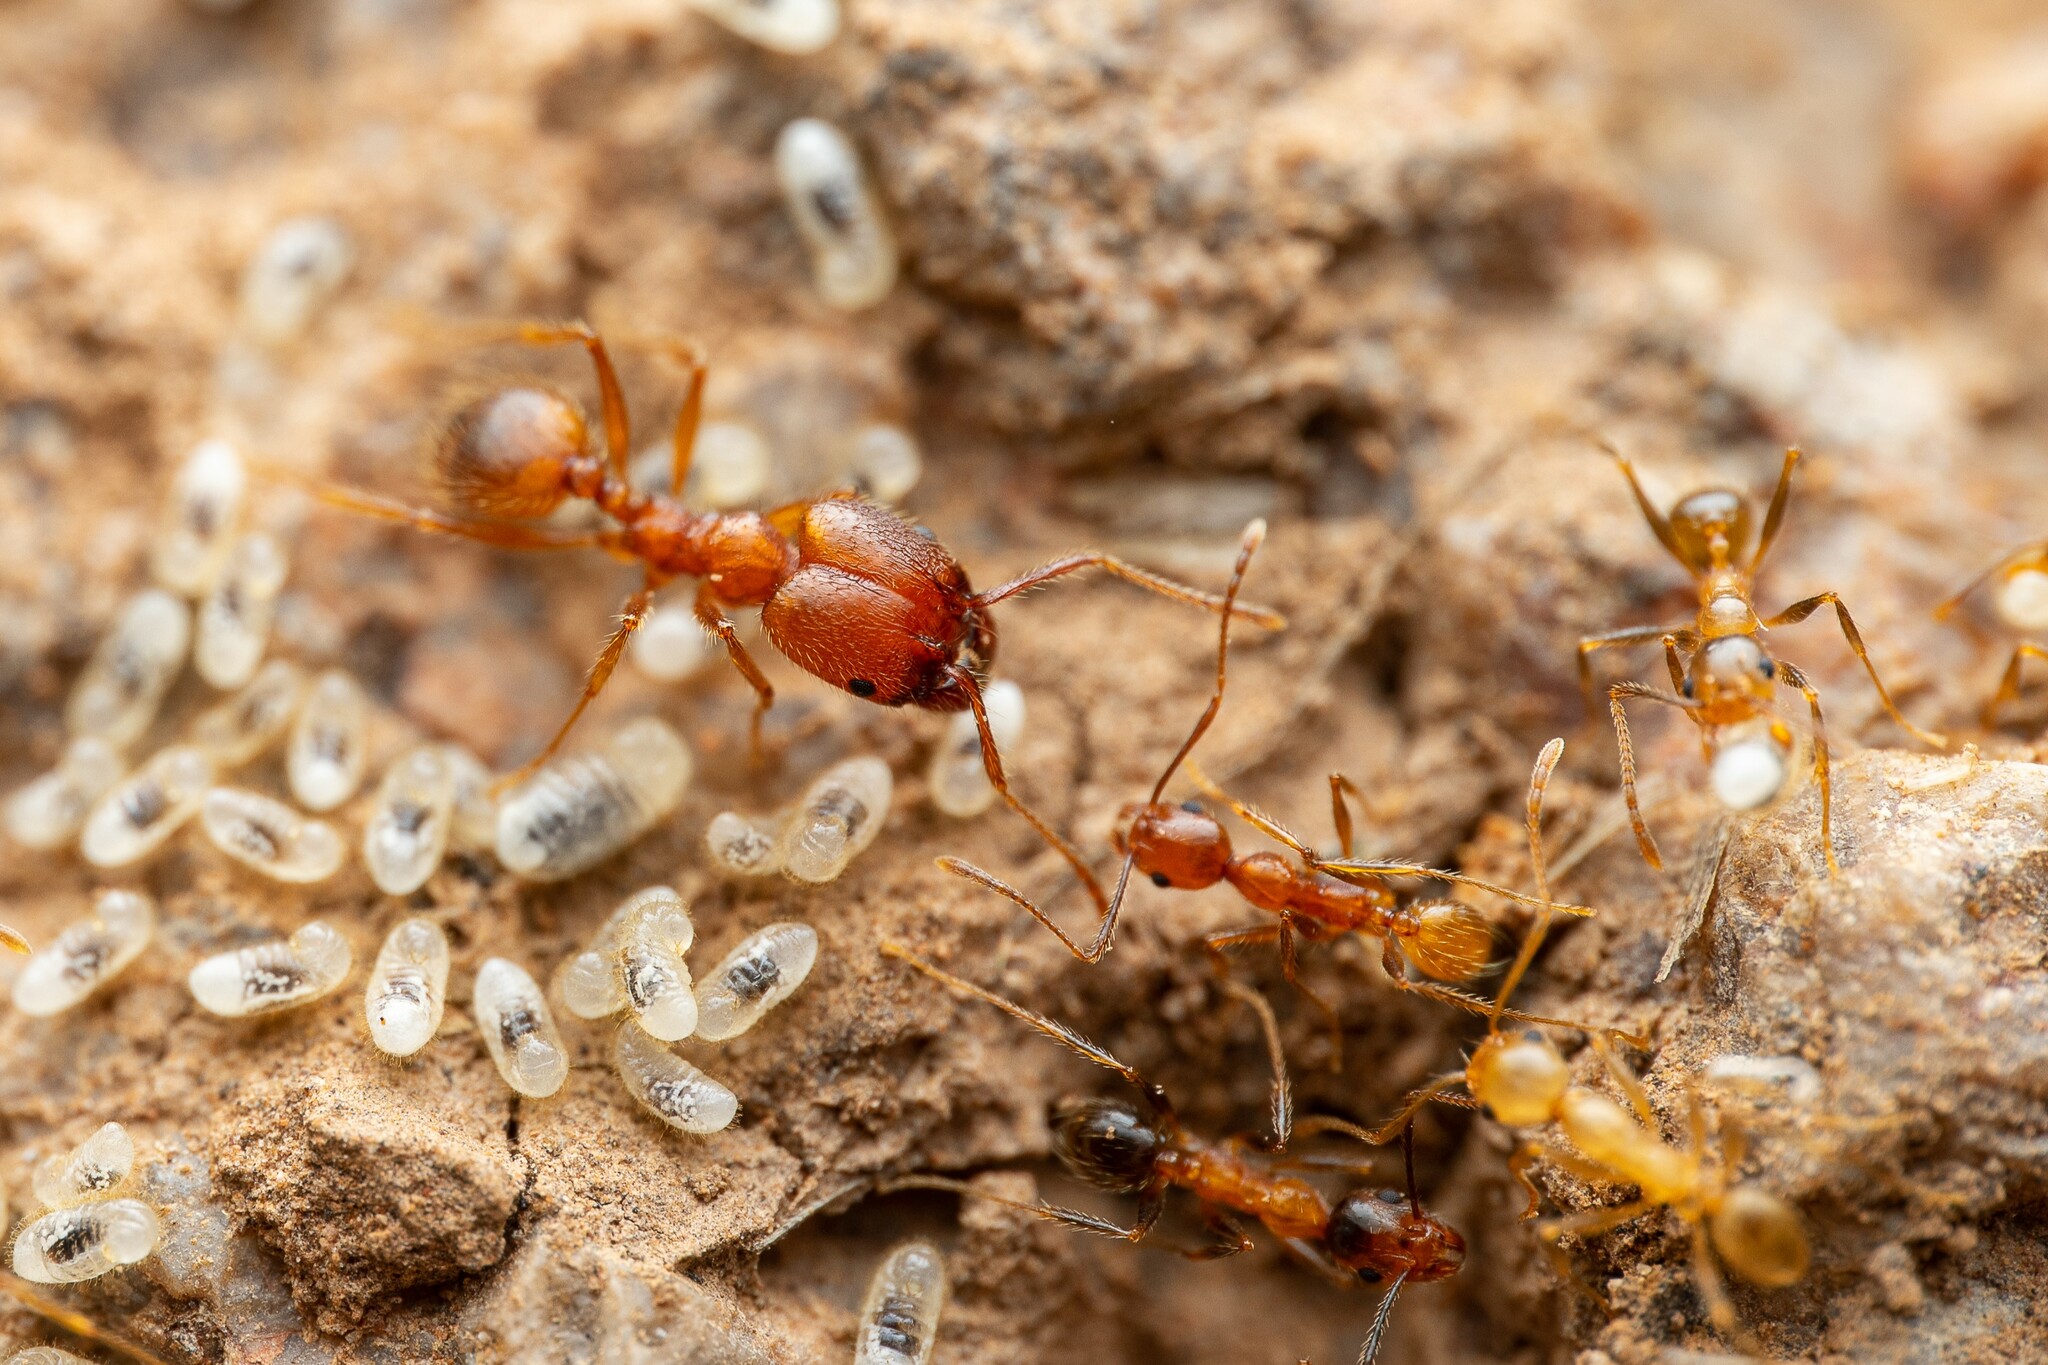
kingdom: Animalia
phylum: Arthropoda
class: Insecta
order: Hymenoptera
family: Formicidae
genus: Pheidole
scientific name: Pheidole hyatti
